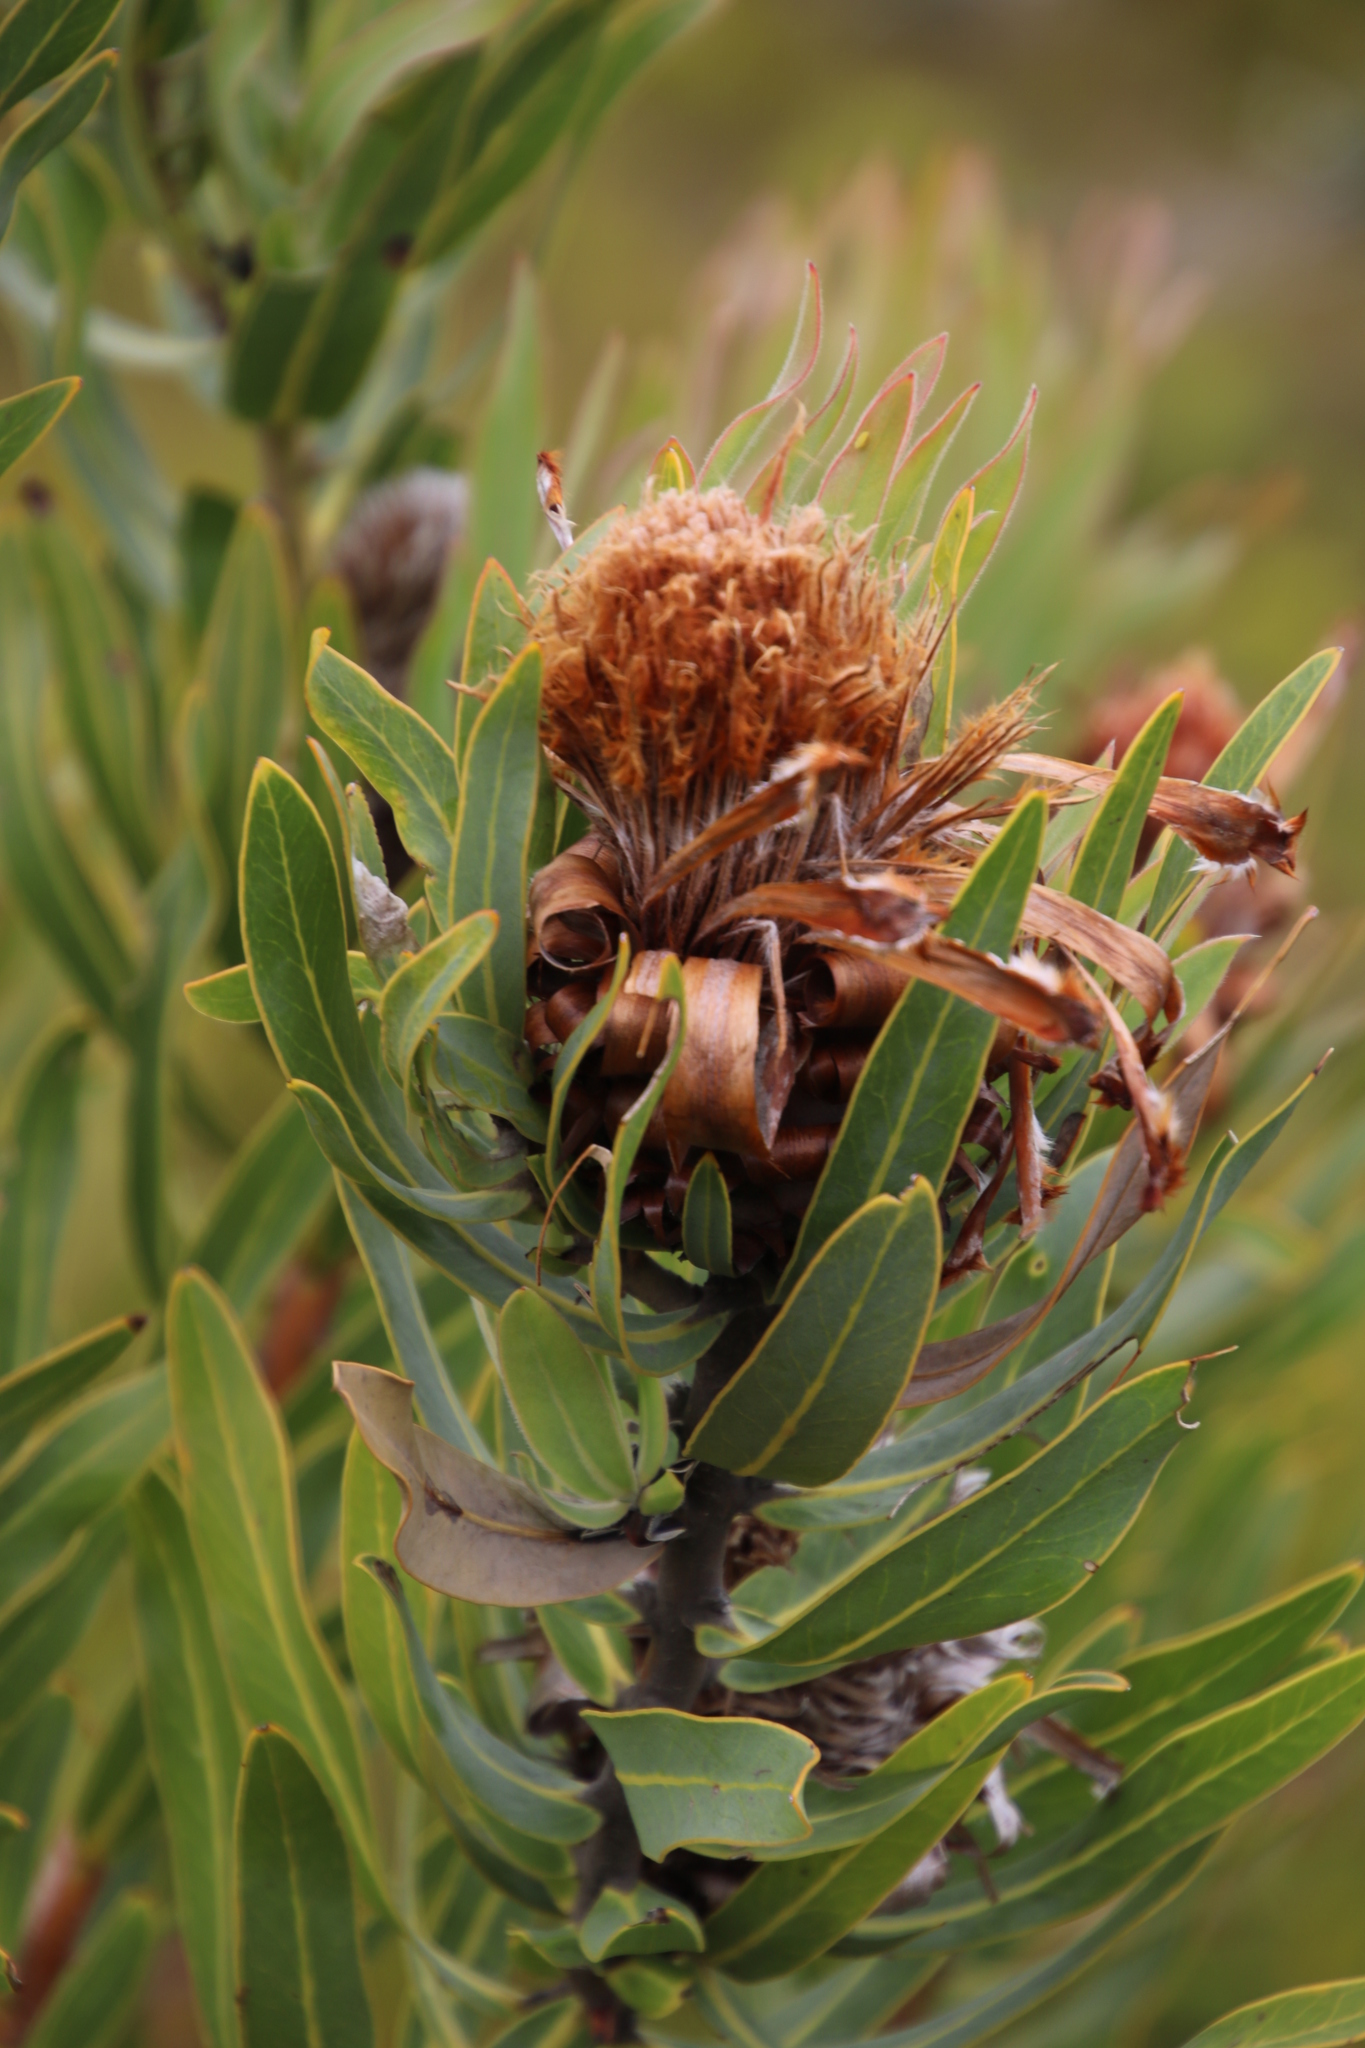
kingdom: Plantae
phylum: Tracheophyta
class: Magnoliopsida
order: Proteales
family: Proteaceae
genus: Protea
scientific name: Protea neriifolia
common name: Blue sugarbush
